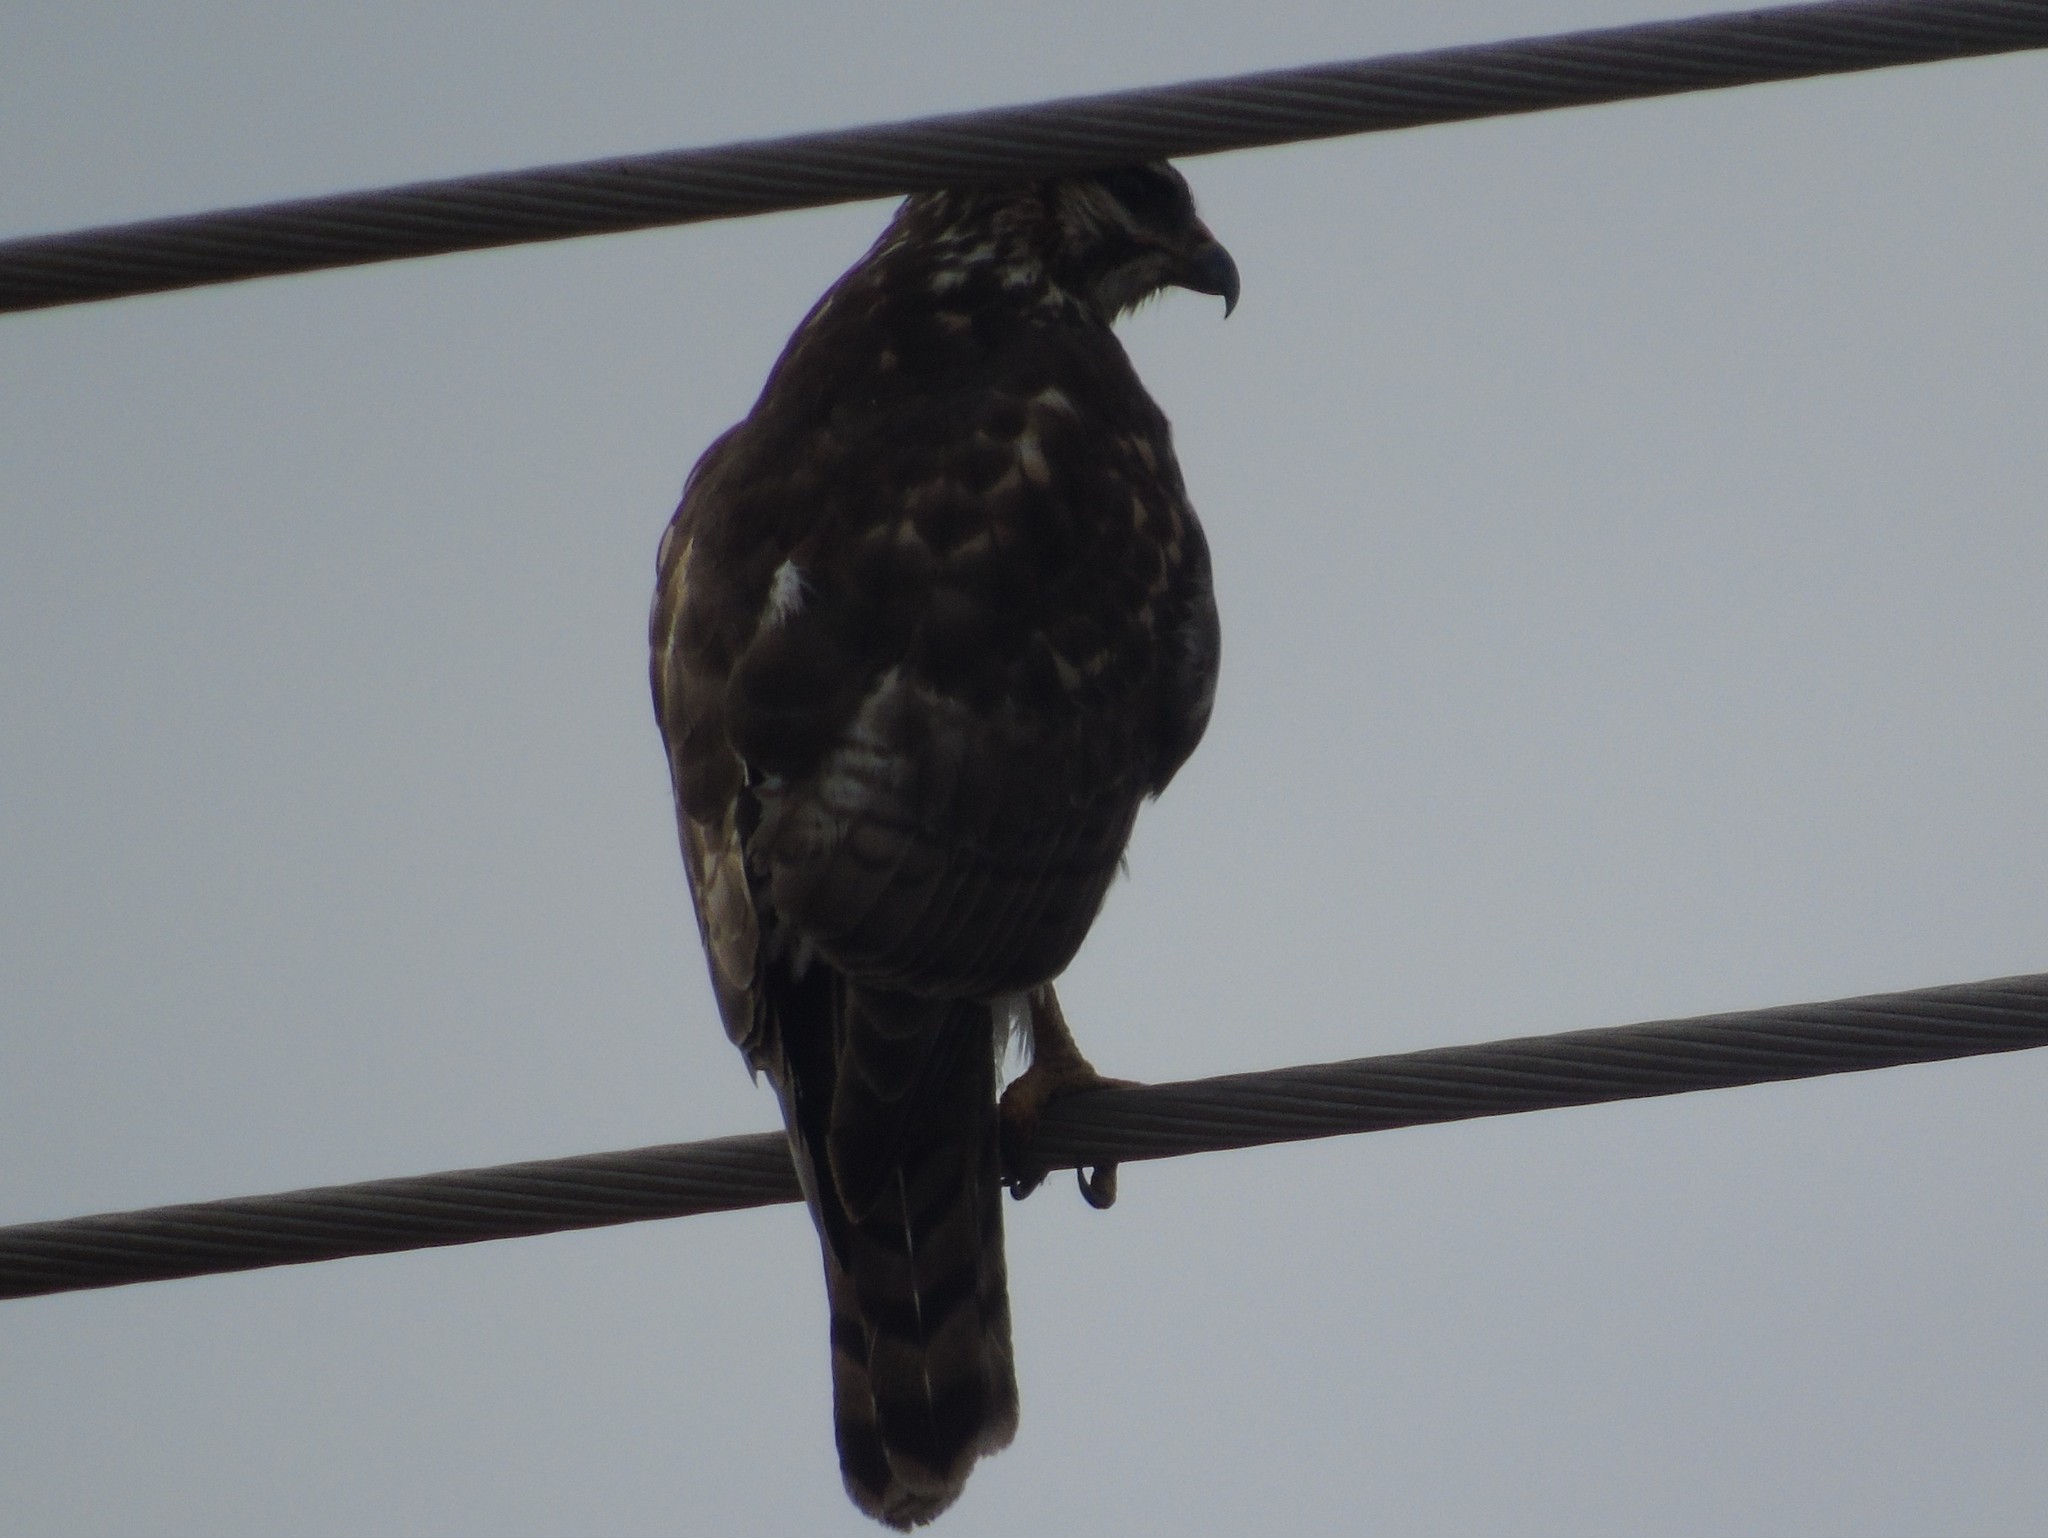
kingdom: Animalia
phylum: Chordata
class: Aves
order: Accipitriformes
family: Accipitridae
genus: Buteo
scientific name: Buteo nitidus
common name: Grey-lined hawk
